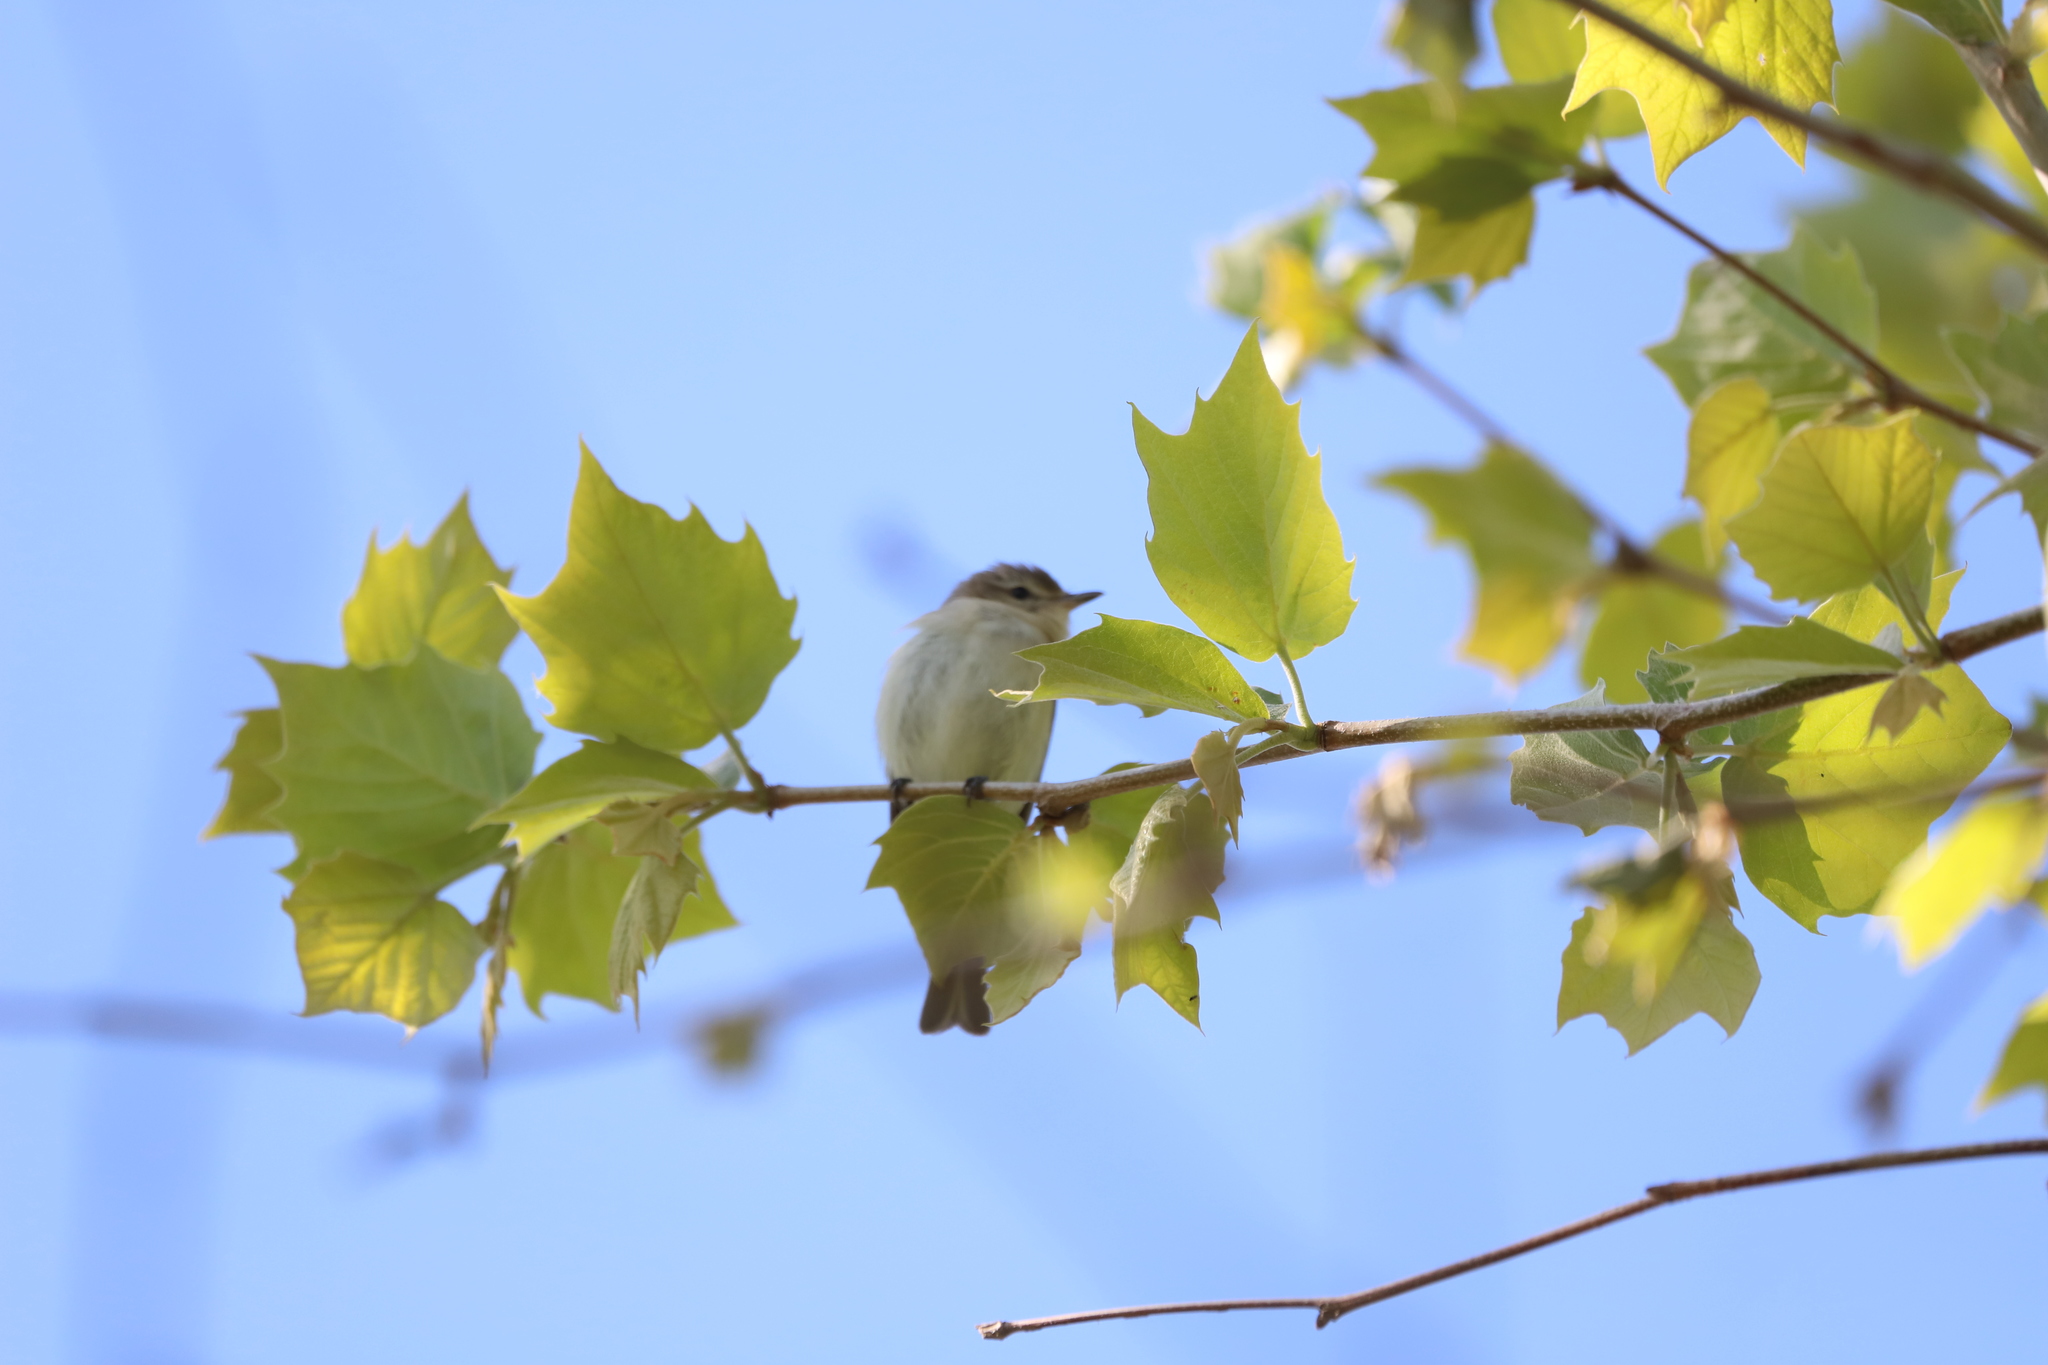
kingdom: Animalia
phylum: Chordata
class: Aves
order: Passeriformes
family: Vireonidae
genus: Vireo
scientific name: Vireo gilvus
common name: Warbling vireo
